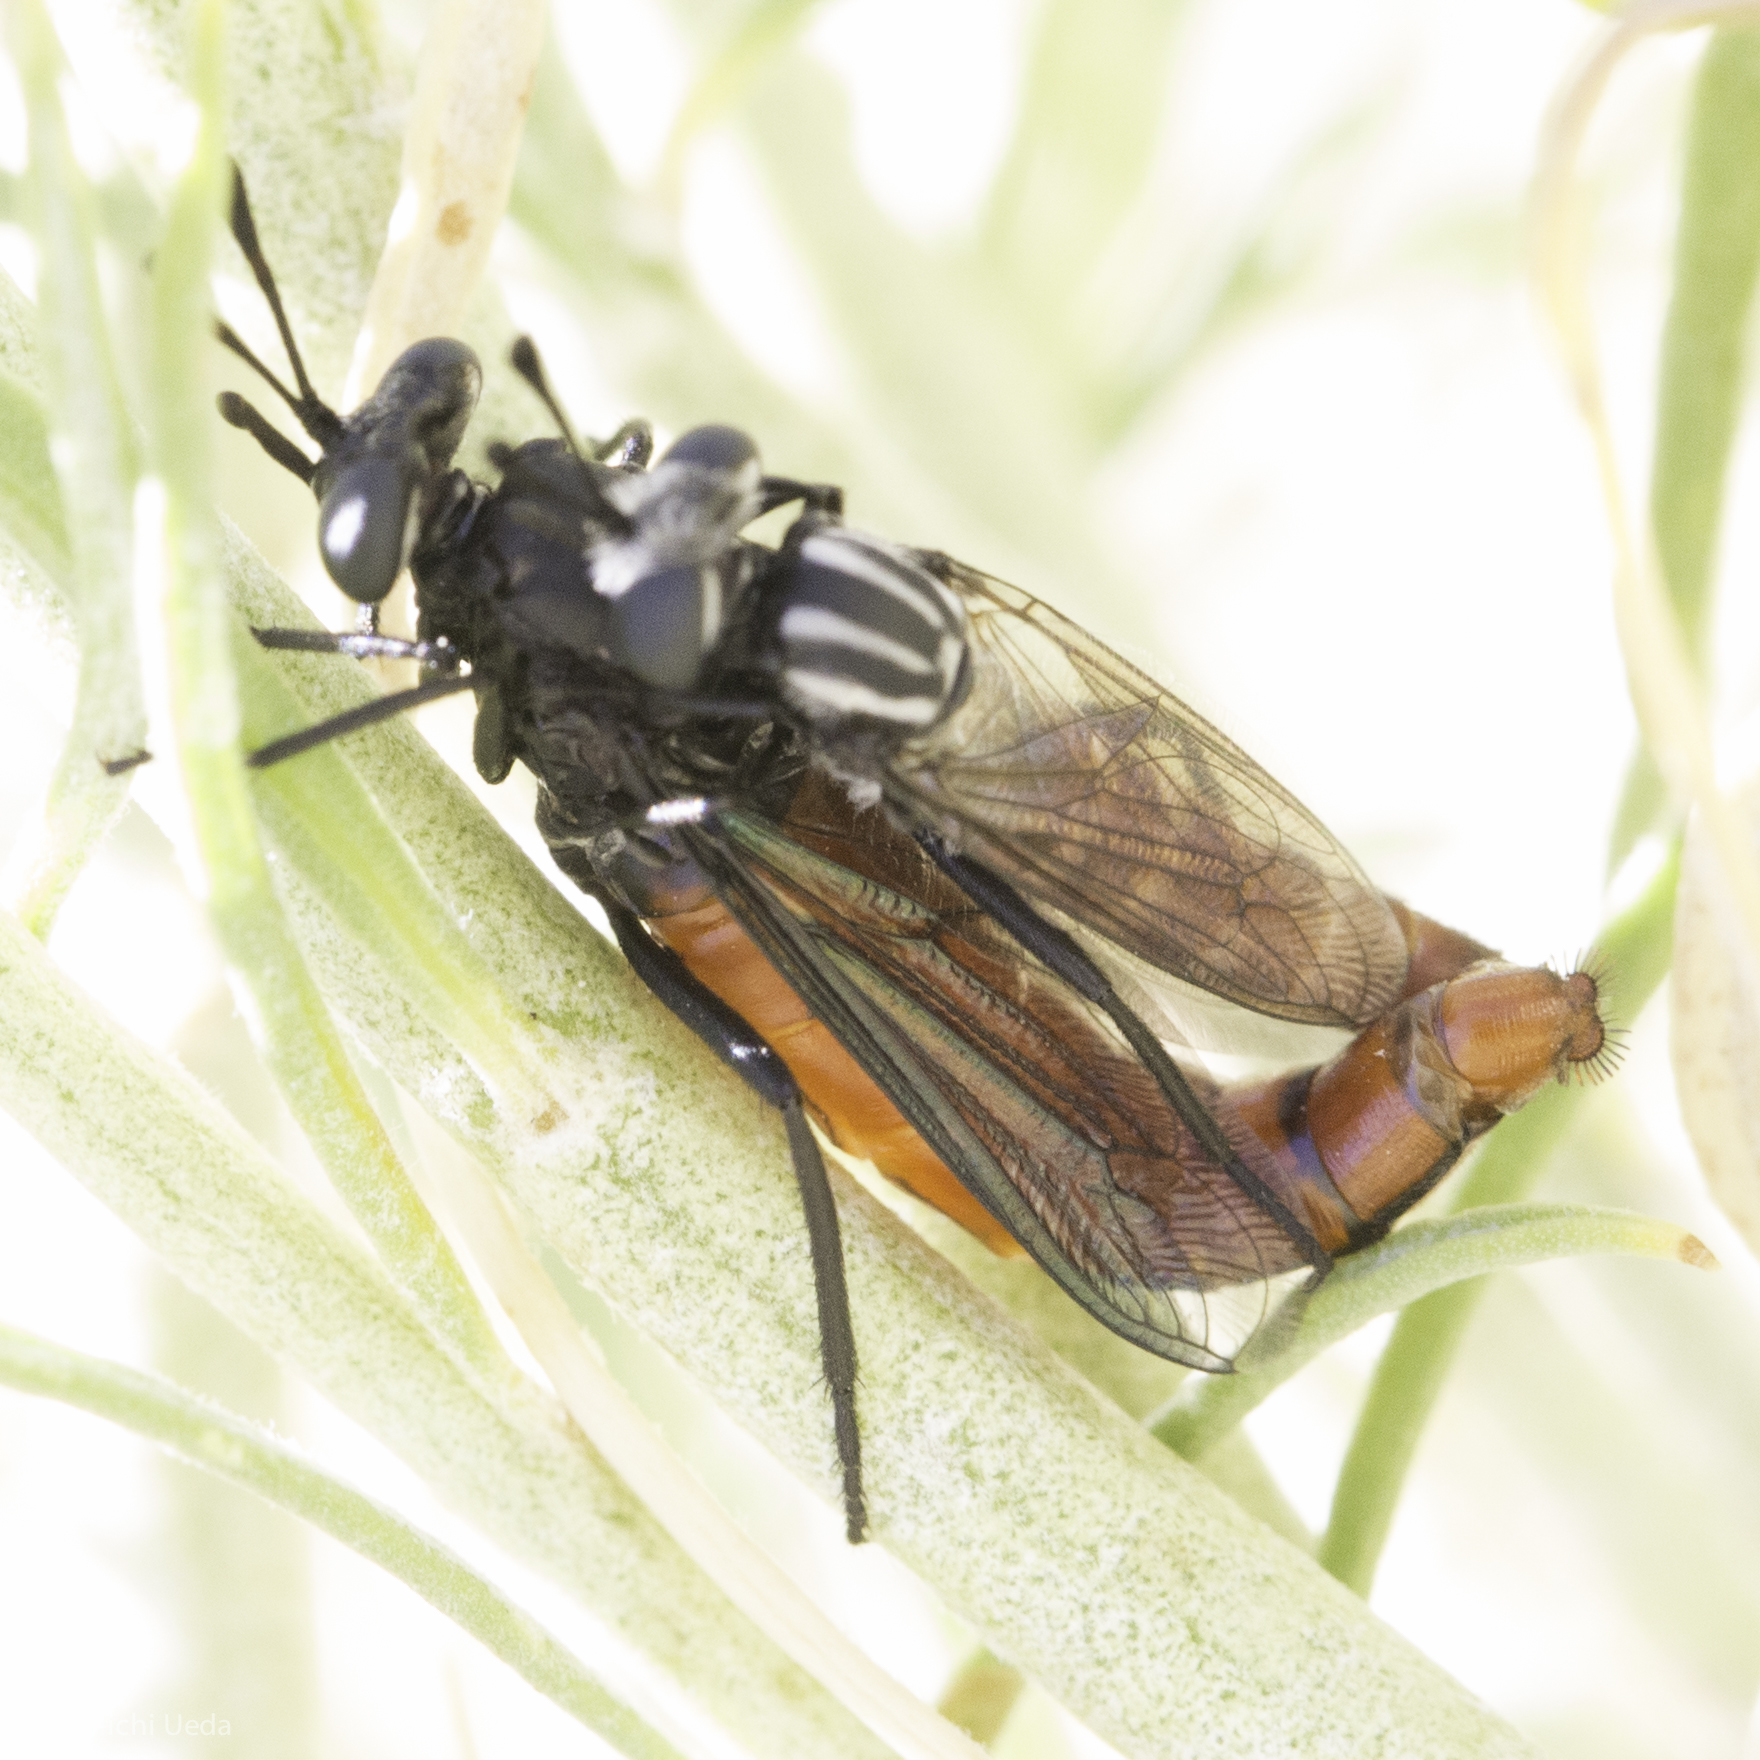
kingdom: Animalia
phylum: Arthropoda
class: Insecta
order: Diptera
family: Mydidae
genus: Pseudonomoneura
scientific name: Pseudonomoneura californica
